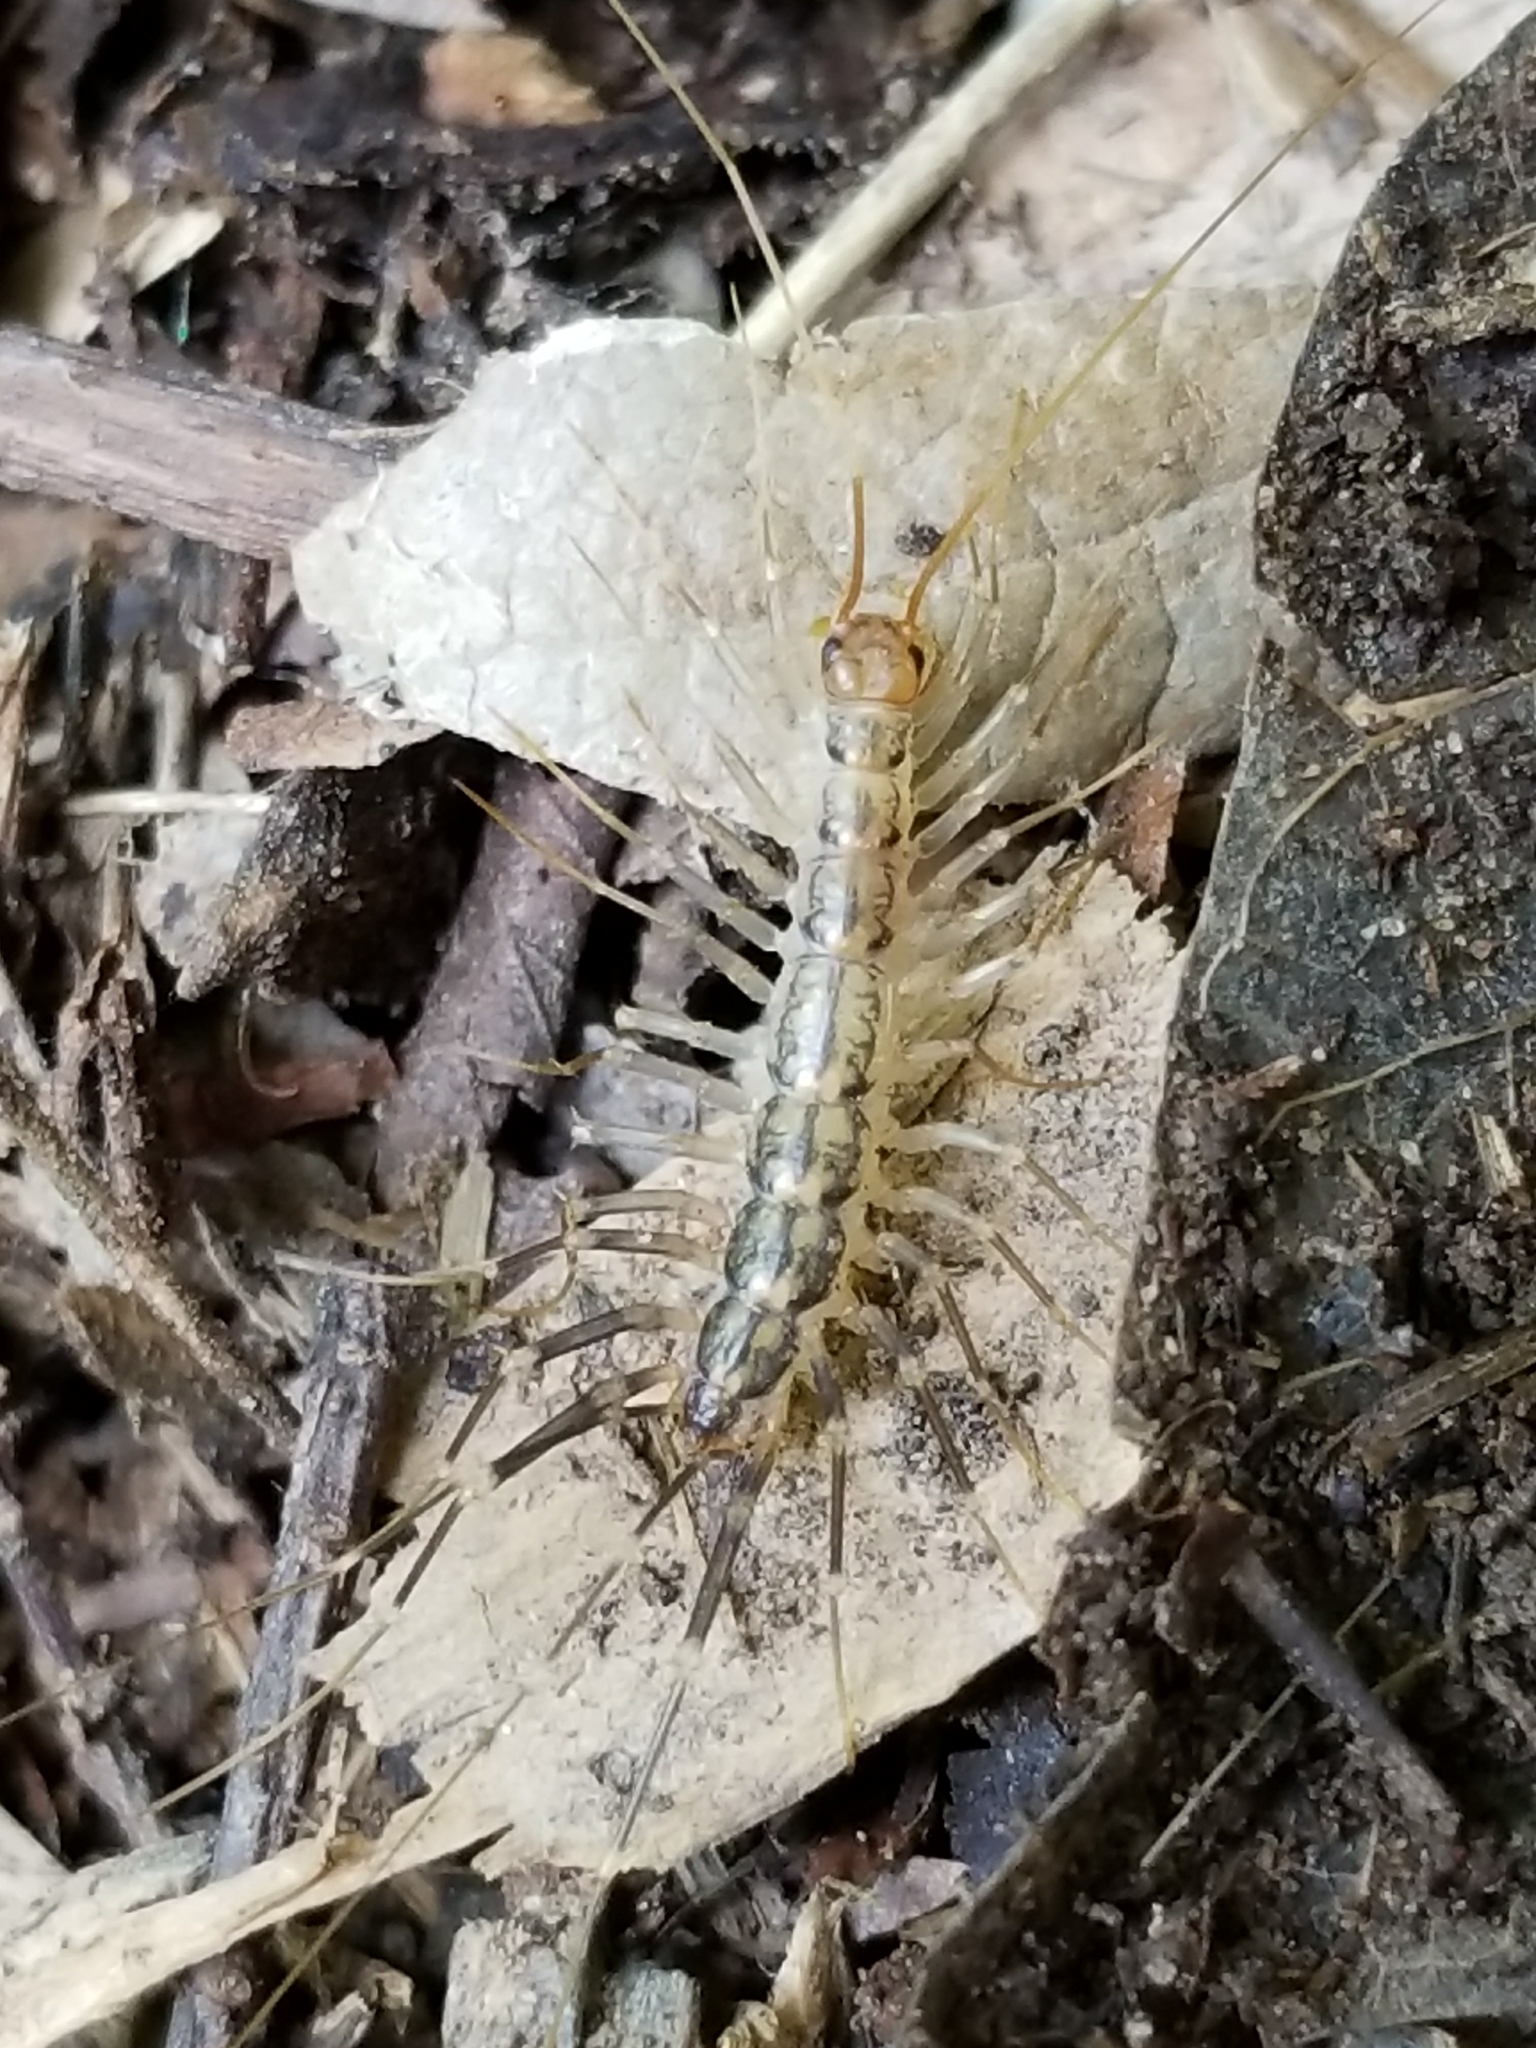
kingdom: Animalia
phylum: Arthropoda
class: Chilopoda
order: Scutigeromorpha
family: Scutigeridae
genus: Scutigera
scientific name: Scutigera coleoptrata
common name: House centipede
